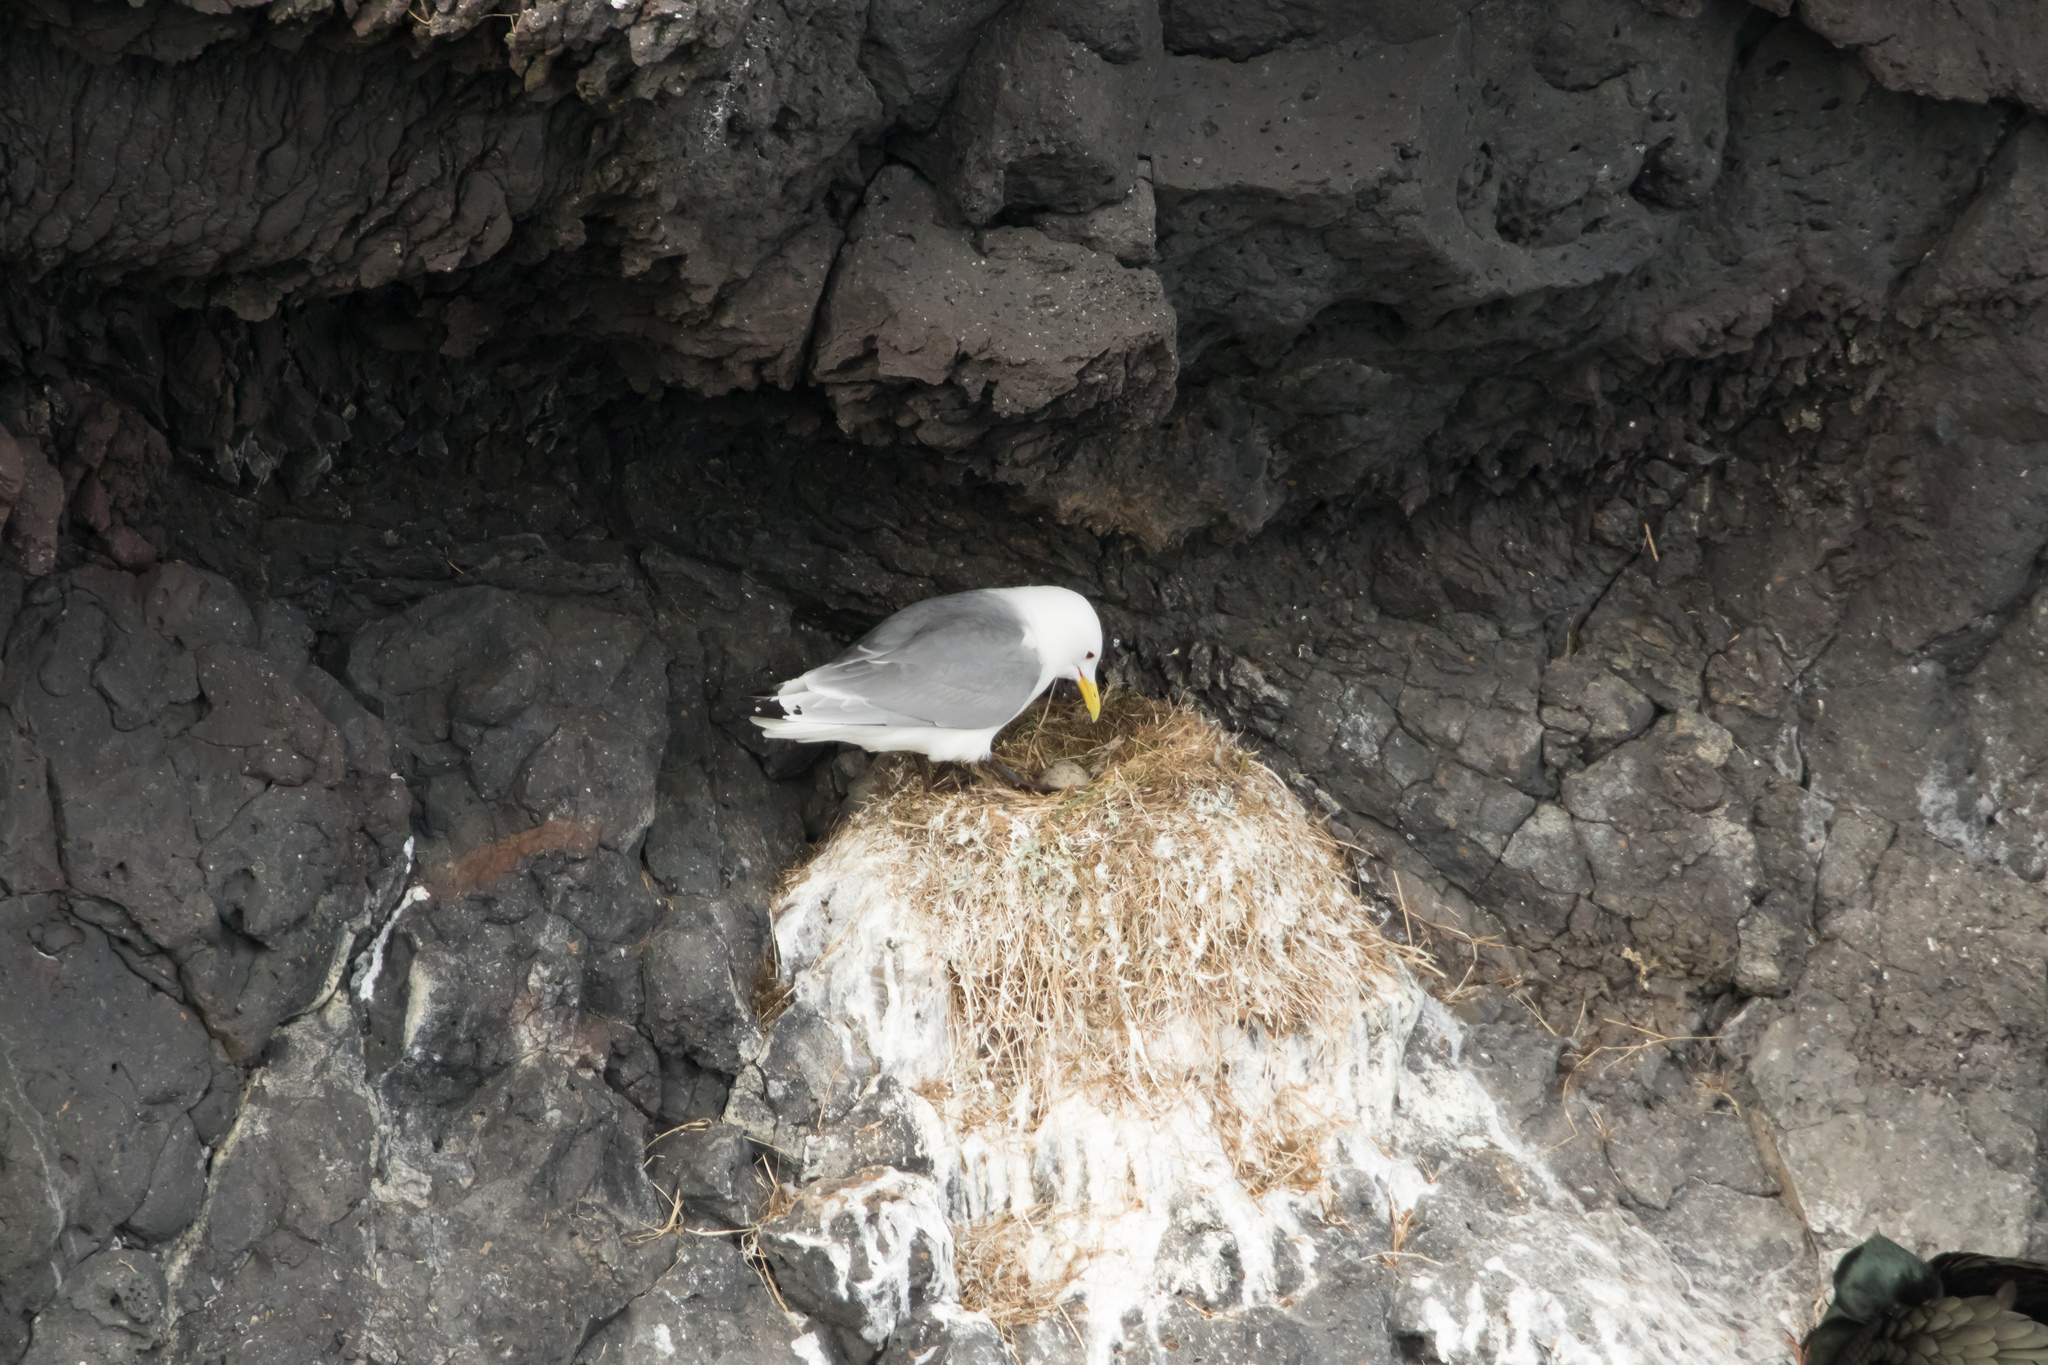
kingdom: Animalia
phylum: Chordata
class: Aves
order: Charadriiformes
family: Laridae
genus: Rissa
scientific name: Rissa tridactyla
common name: Black-legged kittiwake
